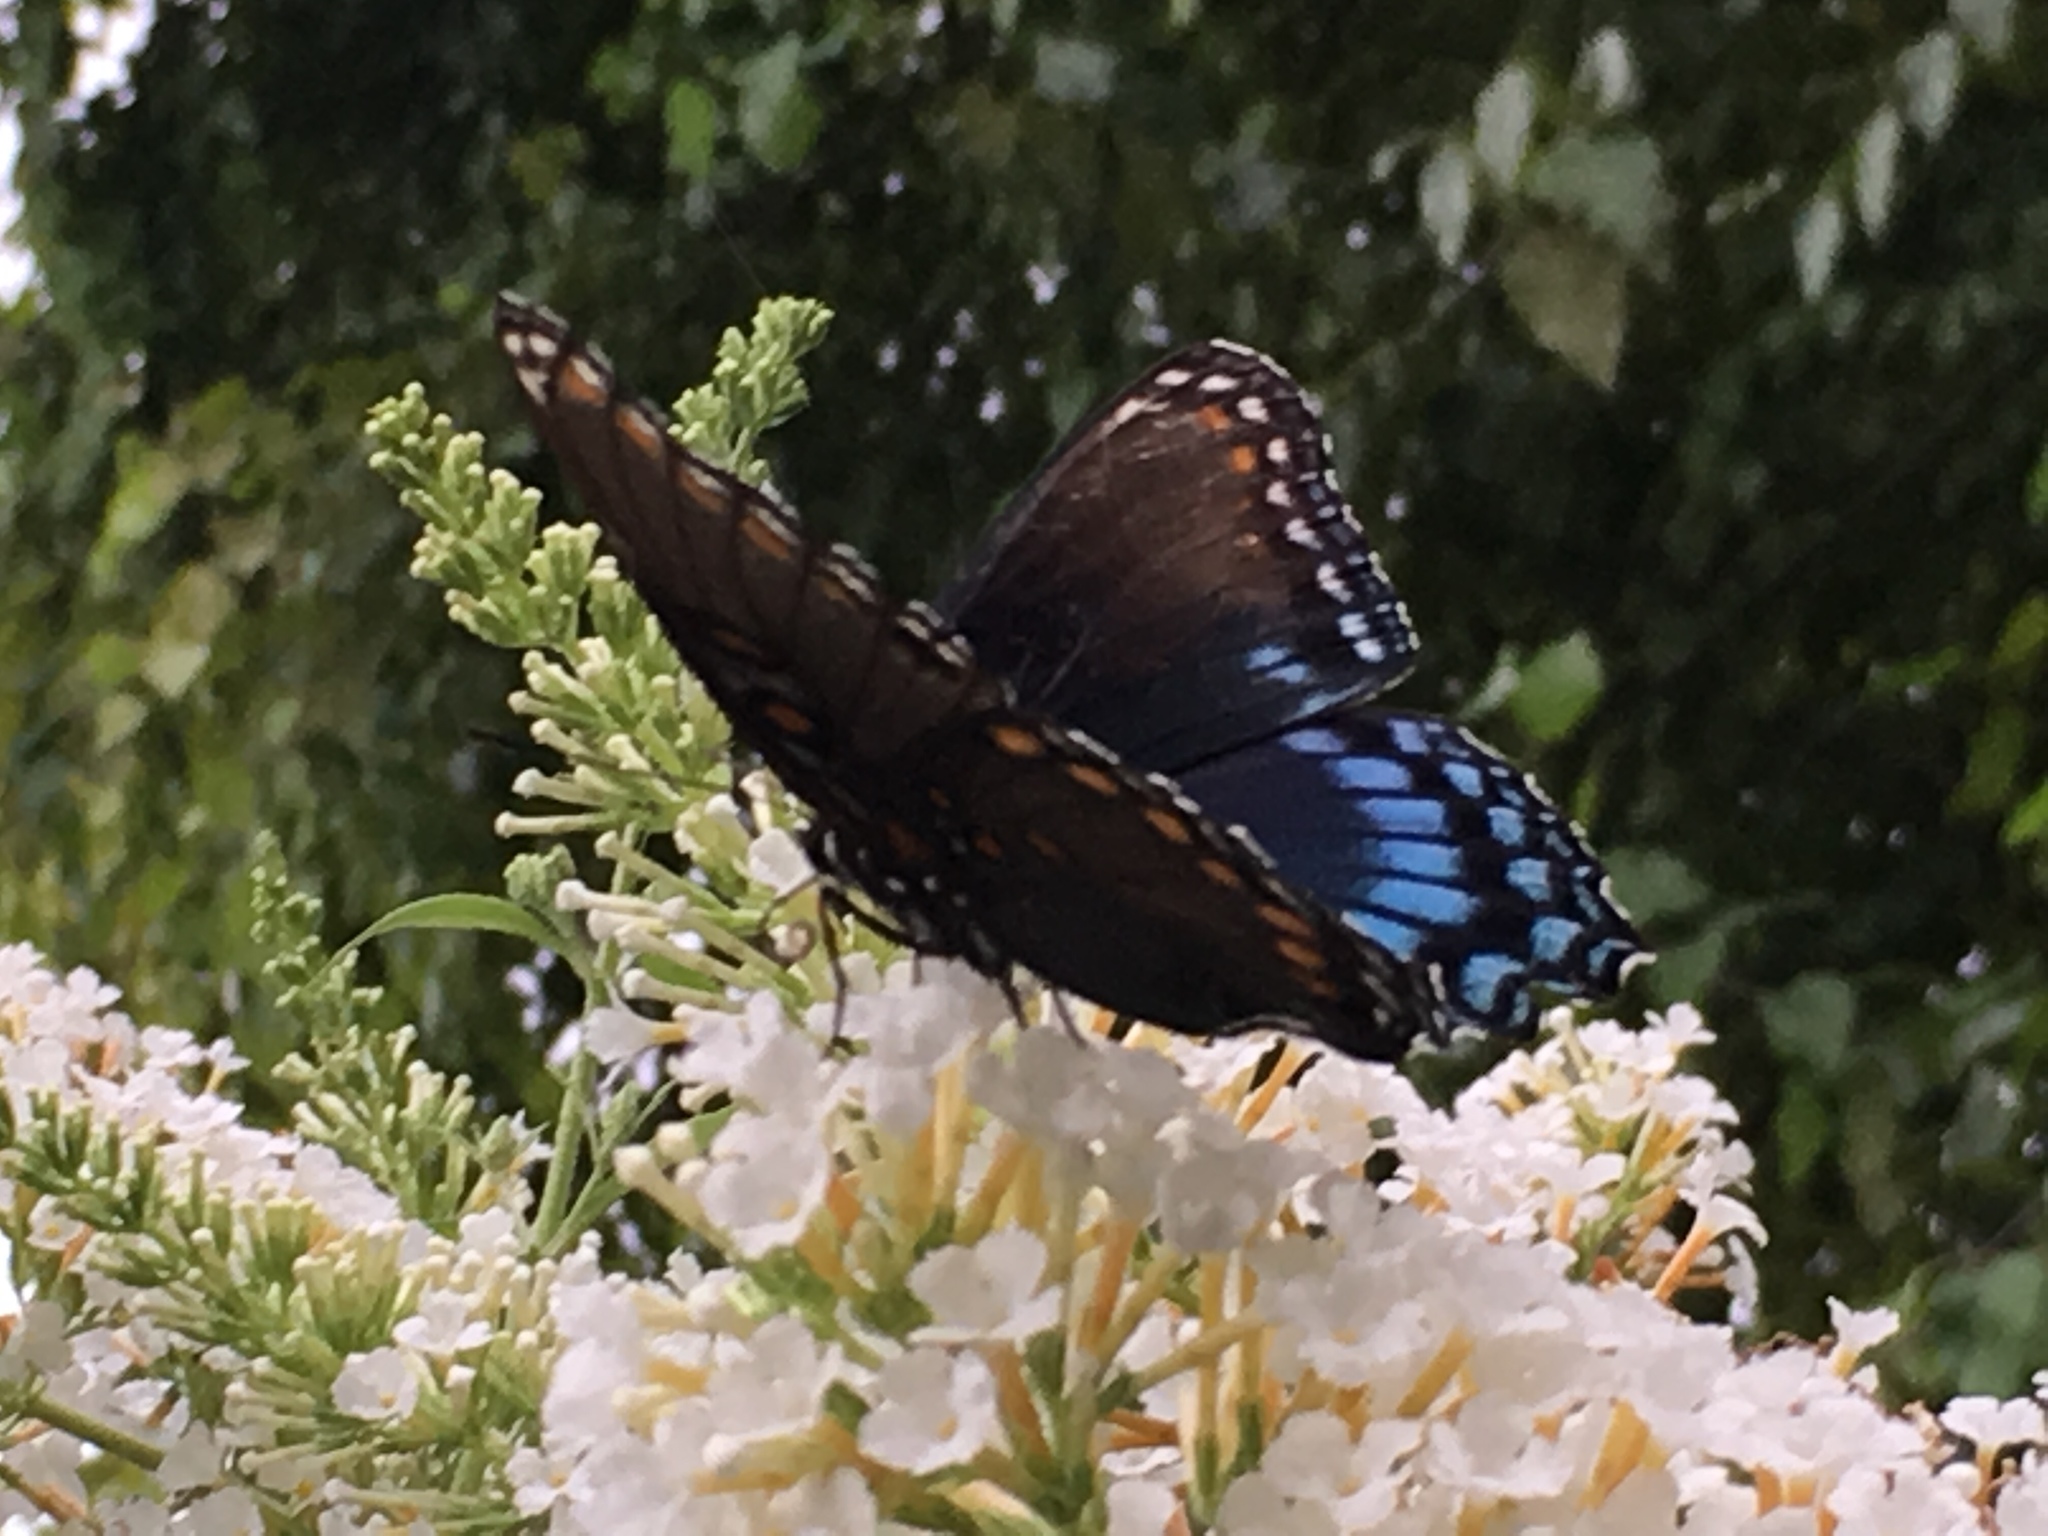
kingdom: Animalia
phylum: Arthropoda
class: Insecta
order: Lepidoptera
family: Nymphalidae
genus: Limenitis
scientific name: Limenitis astyanax
